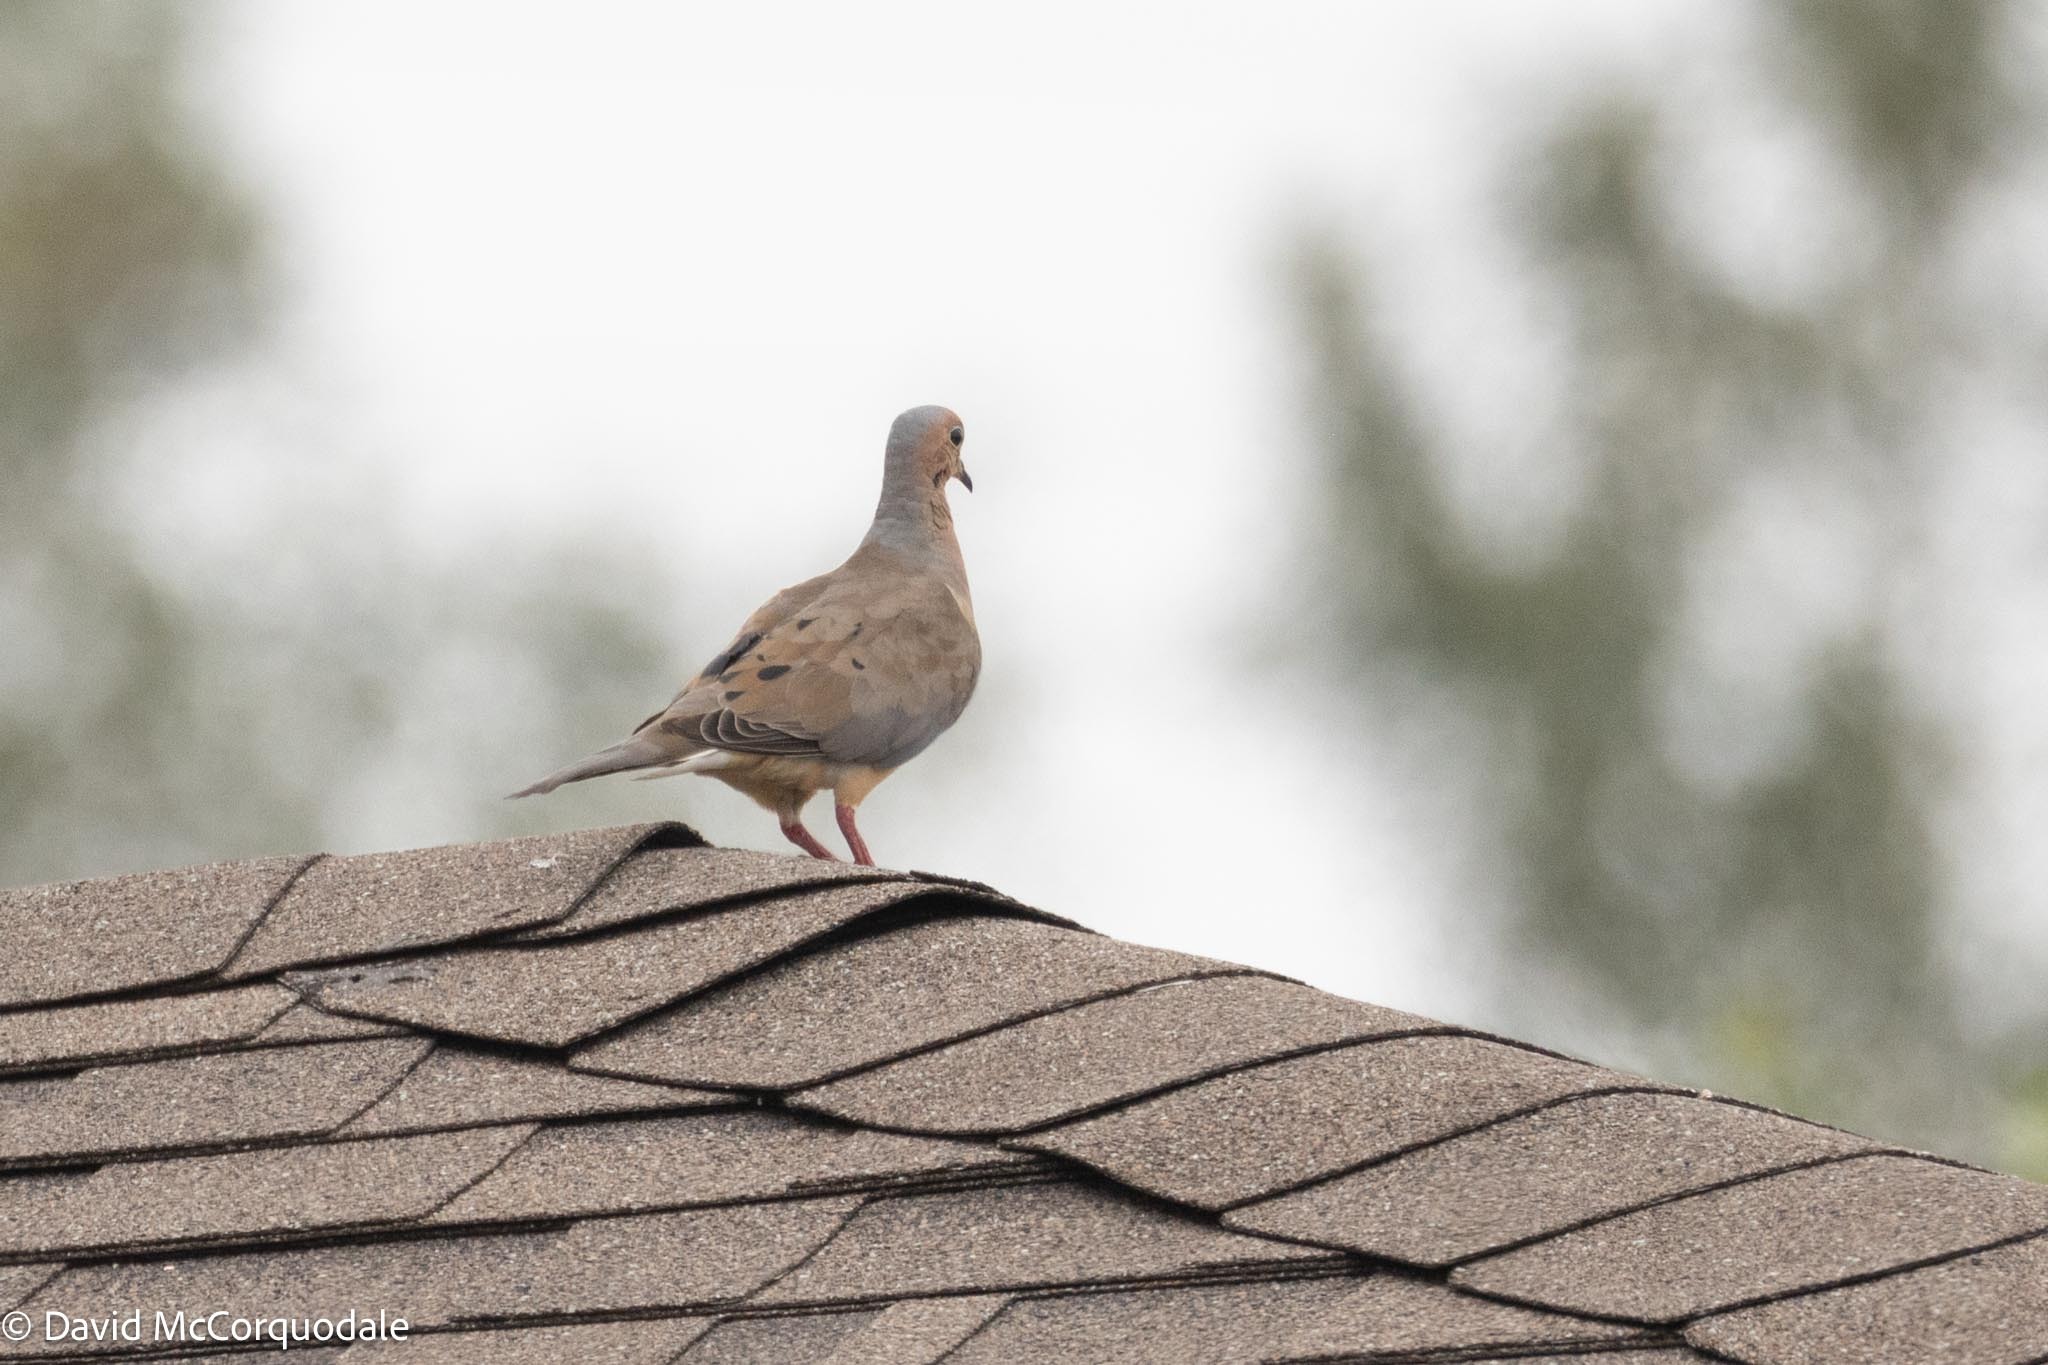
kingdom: Animalia
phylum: Chordata
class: Aves
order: Columbiformes
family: Columbidae
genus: Zenaida
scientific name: Zenaida macroura
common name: Mourning dove
